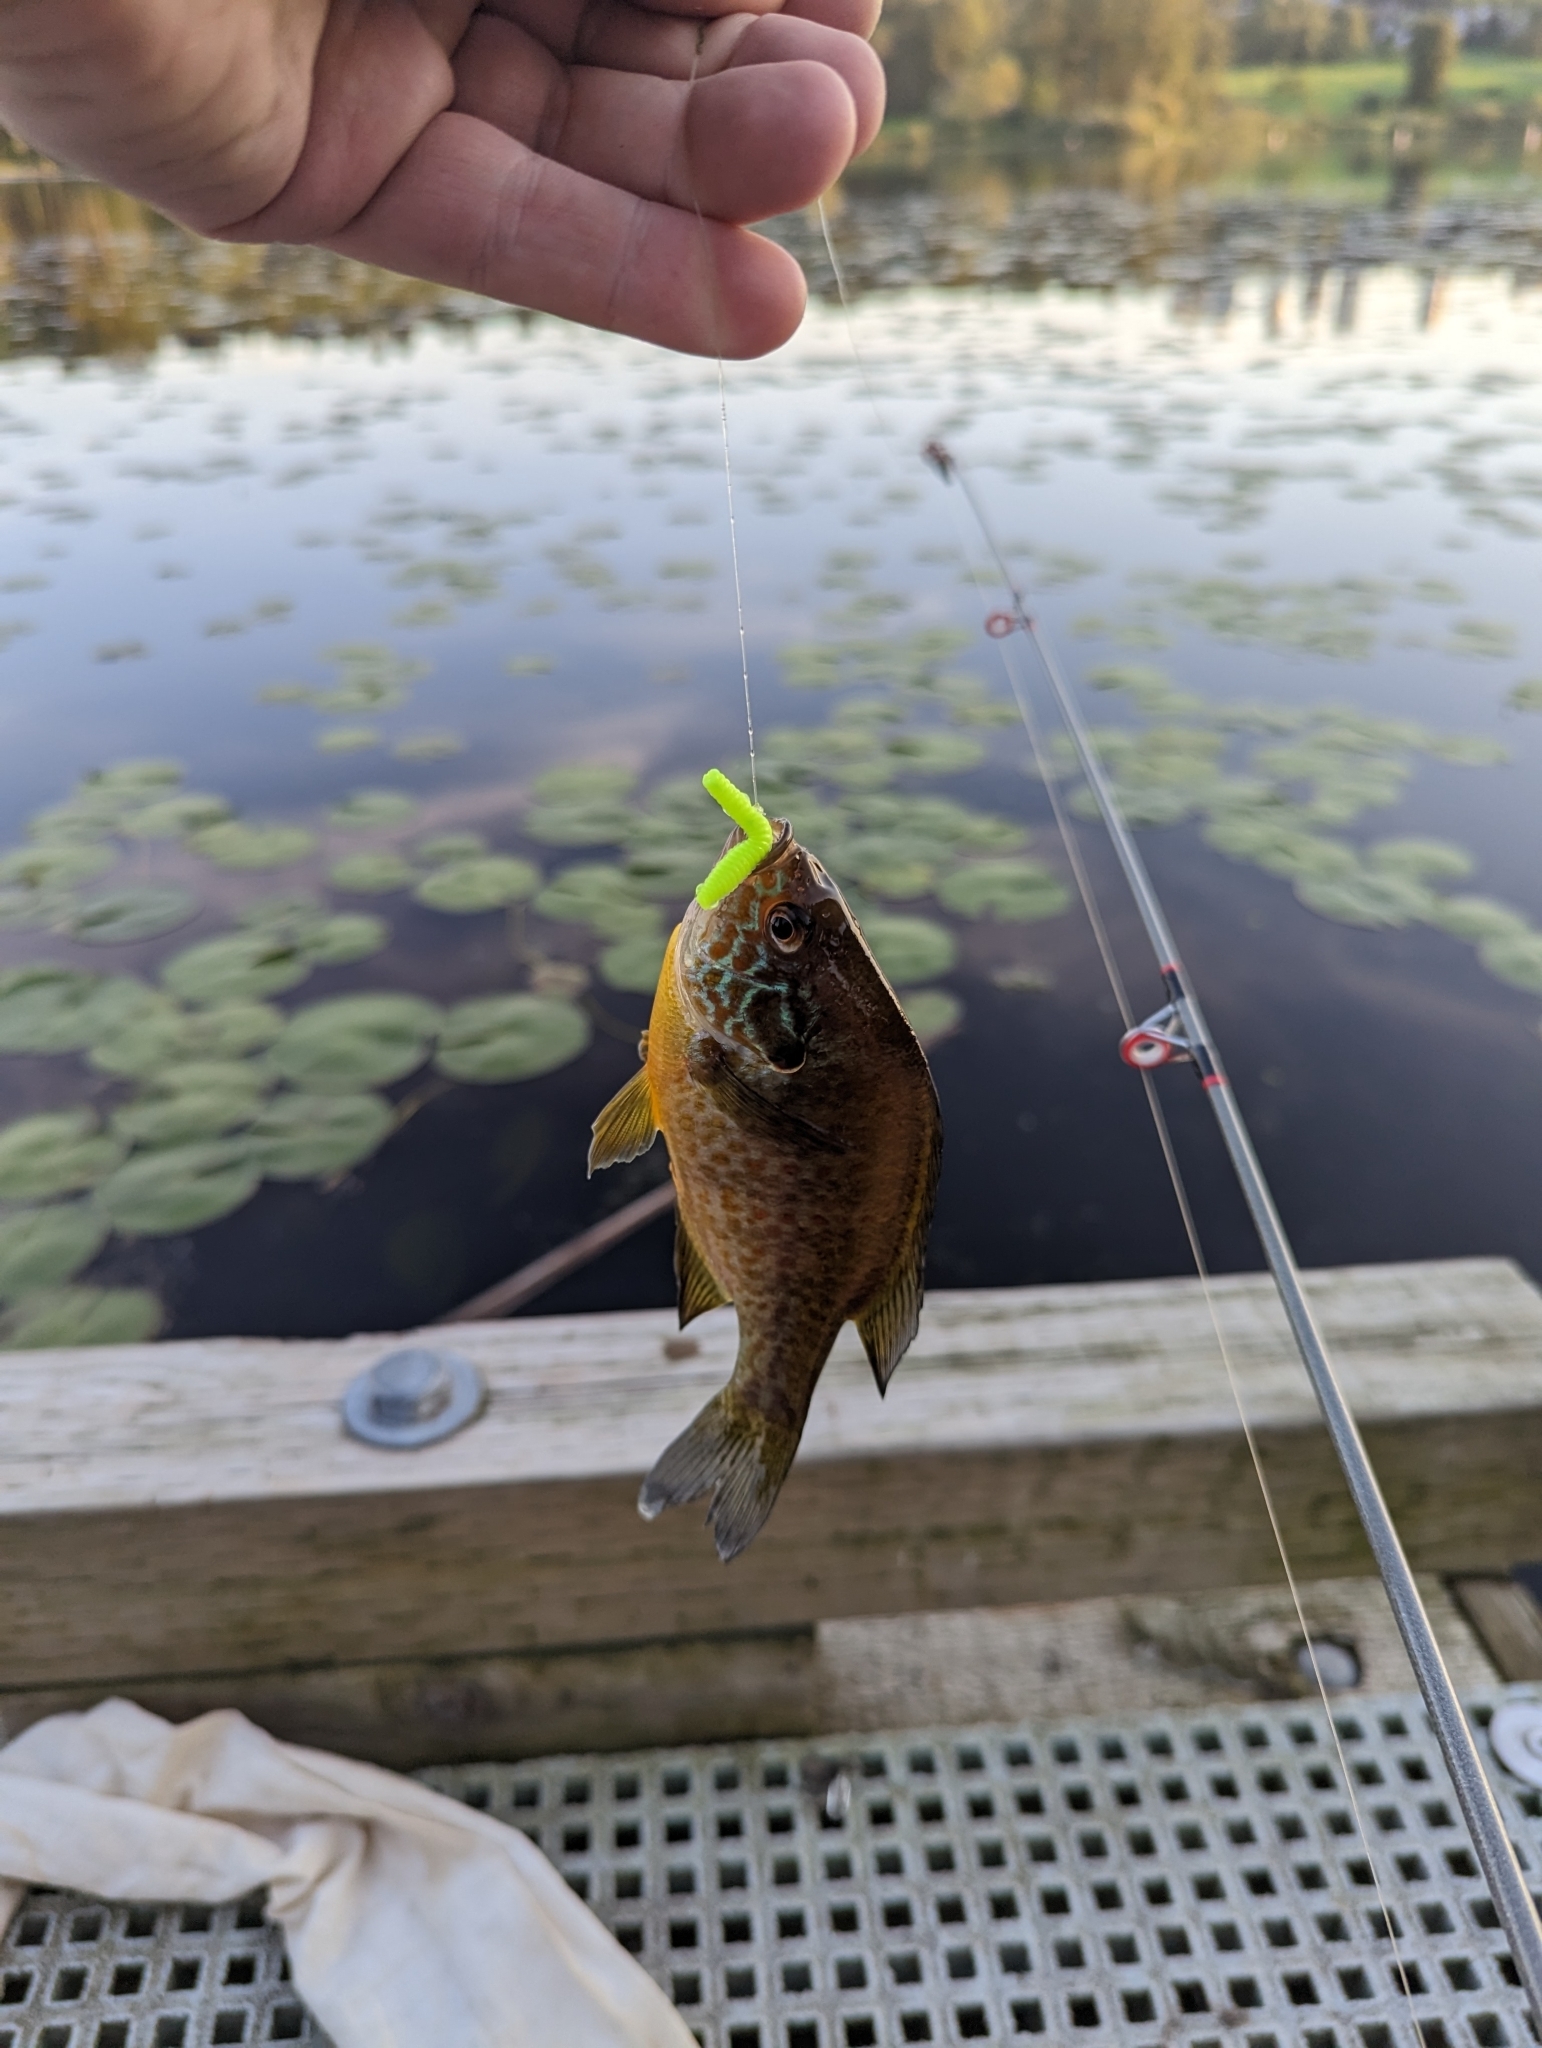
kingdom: Animalia
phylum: Chordata
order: Perciformes
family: Centrarchidae
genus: Lepomis
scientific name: Lepomis gibbosus
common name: Pumpkinseed
